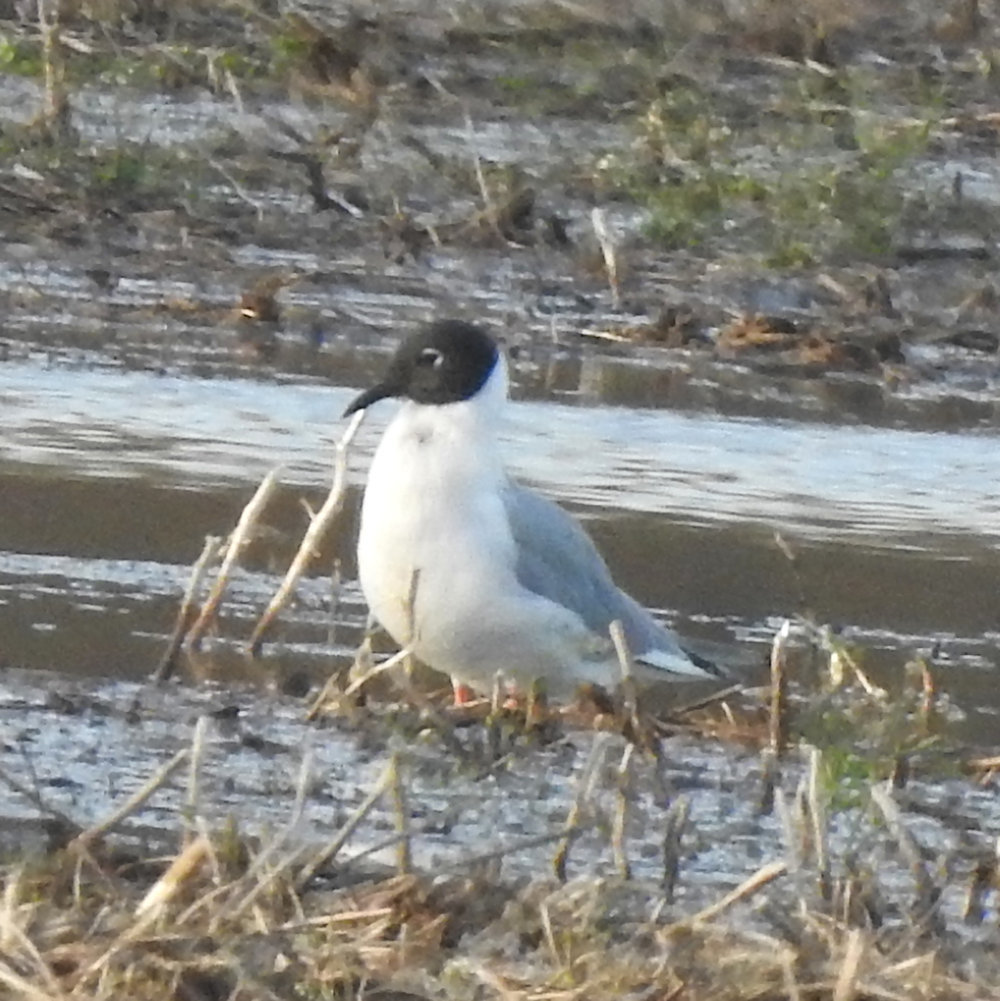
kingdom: Animalia
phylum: Chordata
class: Aves
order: Charadriiformes
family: Laridae
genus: Chroicocephalus
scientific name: Chroicocephalus philadelphia
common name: Bonaparte's gull
